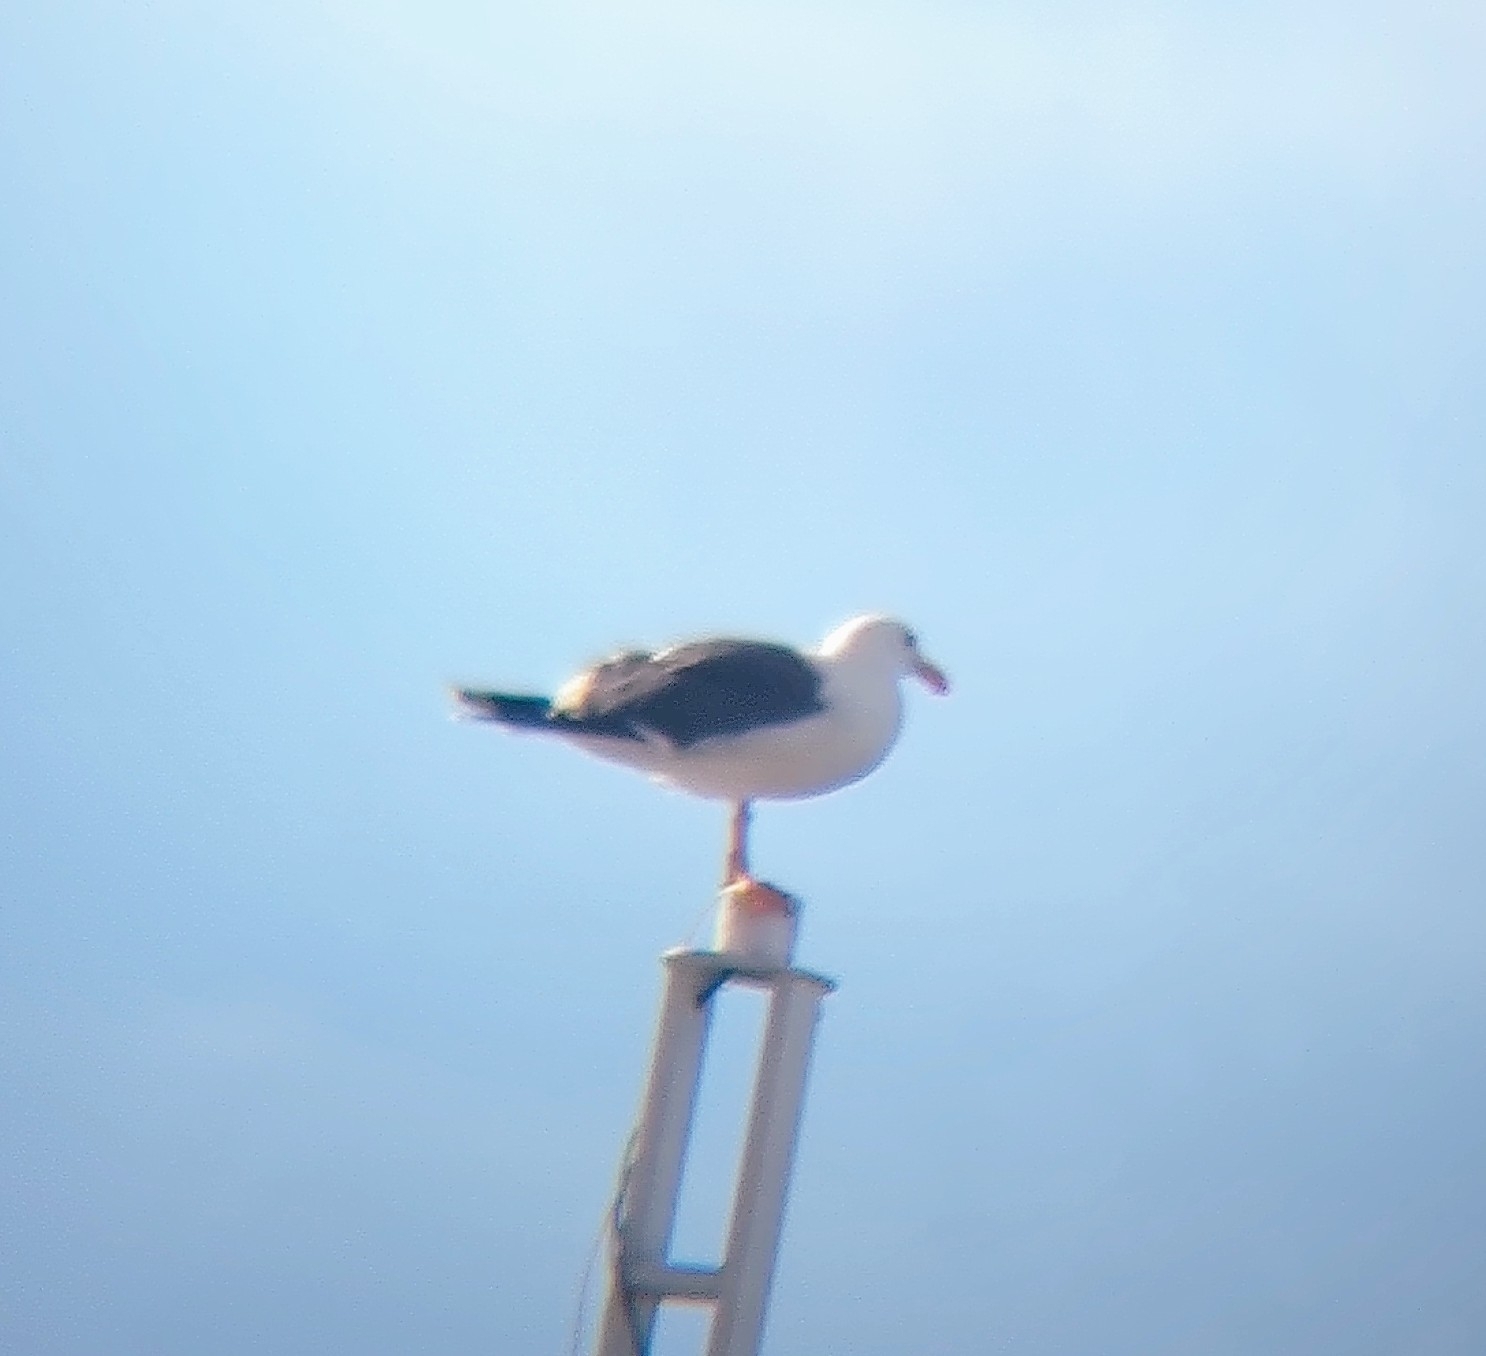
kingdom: Animalia
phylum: Chordata
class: Aves
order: Charadriiformes
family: Laridae
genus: Larus
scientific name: Larus livens
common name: Yellow-footed gull
